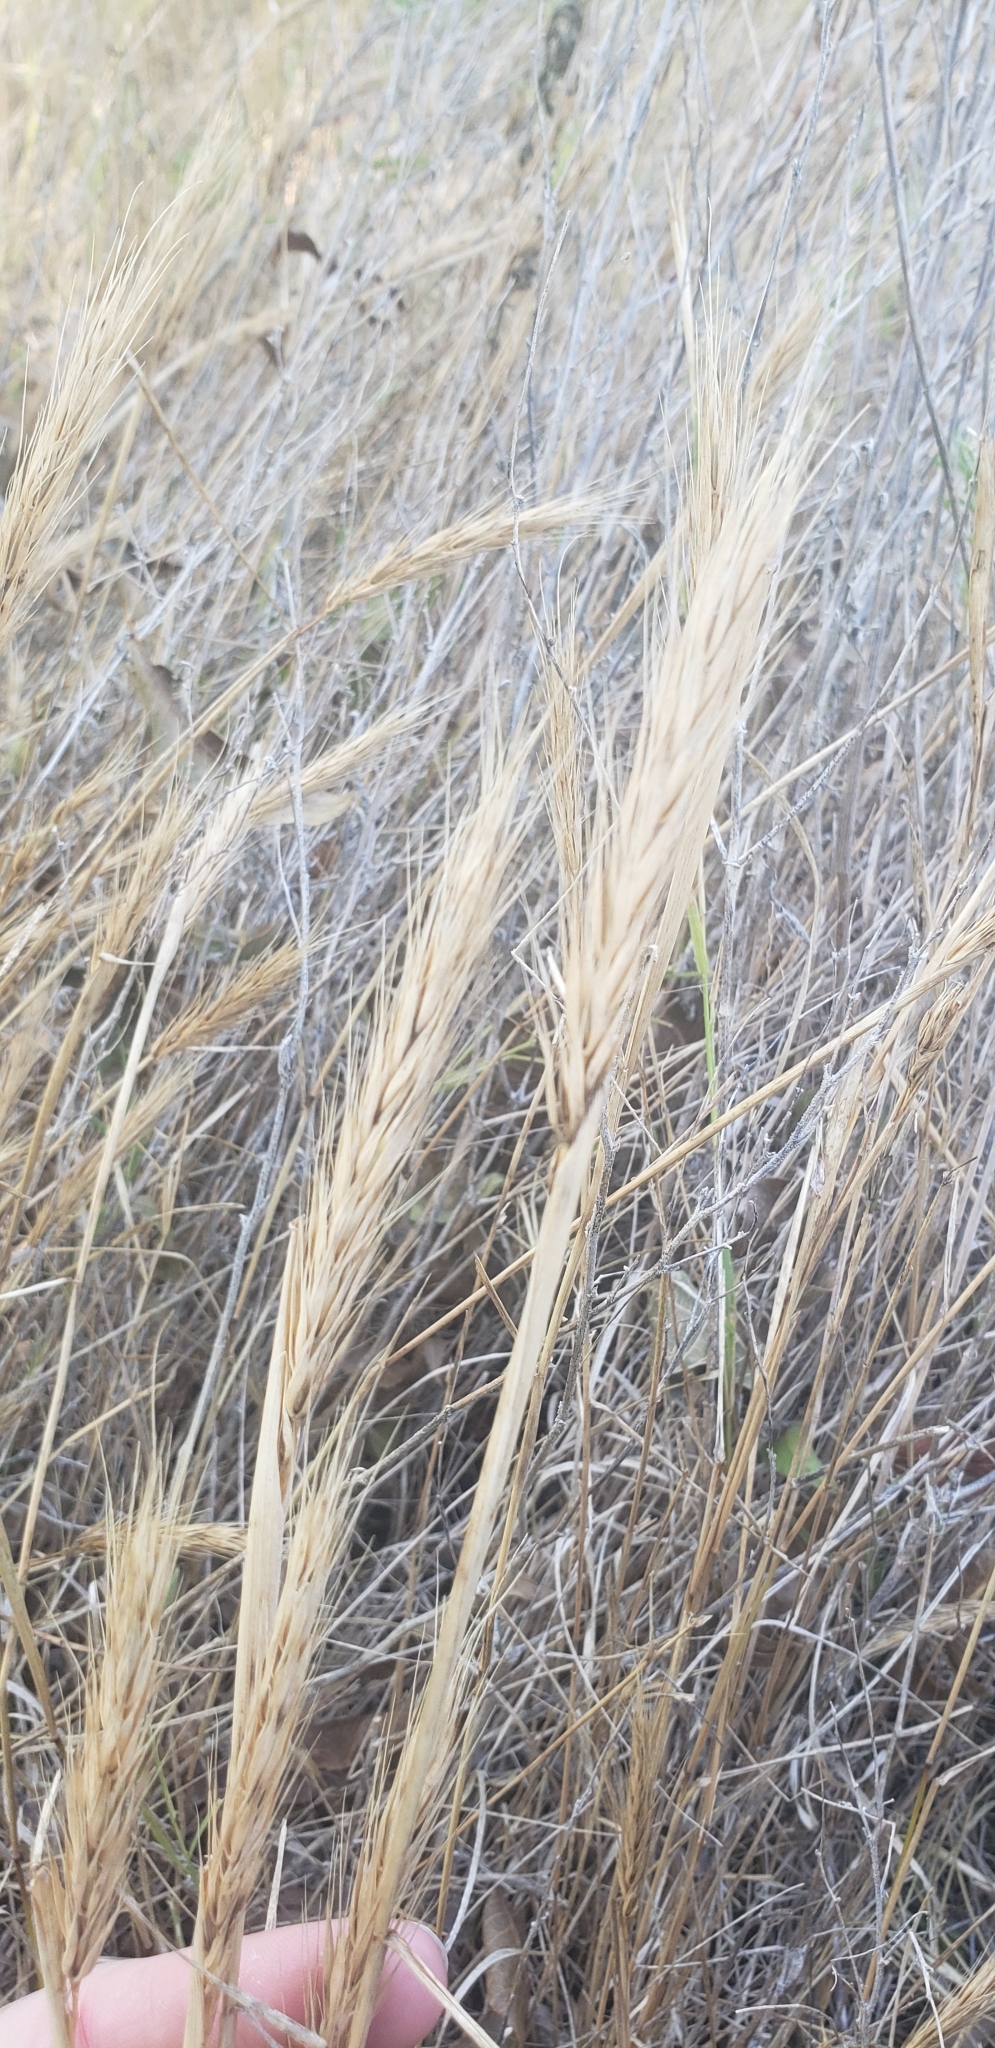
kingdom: Plantae
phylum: Tracheophyta
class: Liliopsida
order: Poales
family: Poaceae
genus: Elymus
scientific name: Elymus virginicus
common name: Common eastern wildrye
